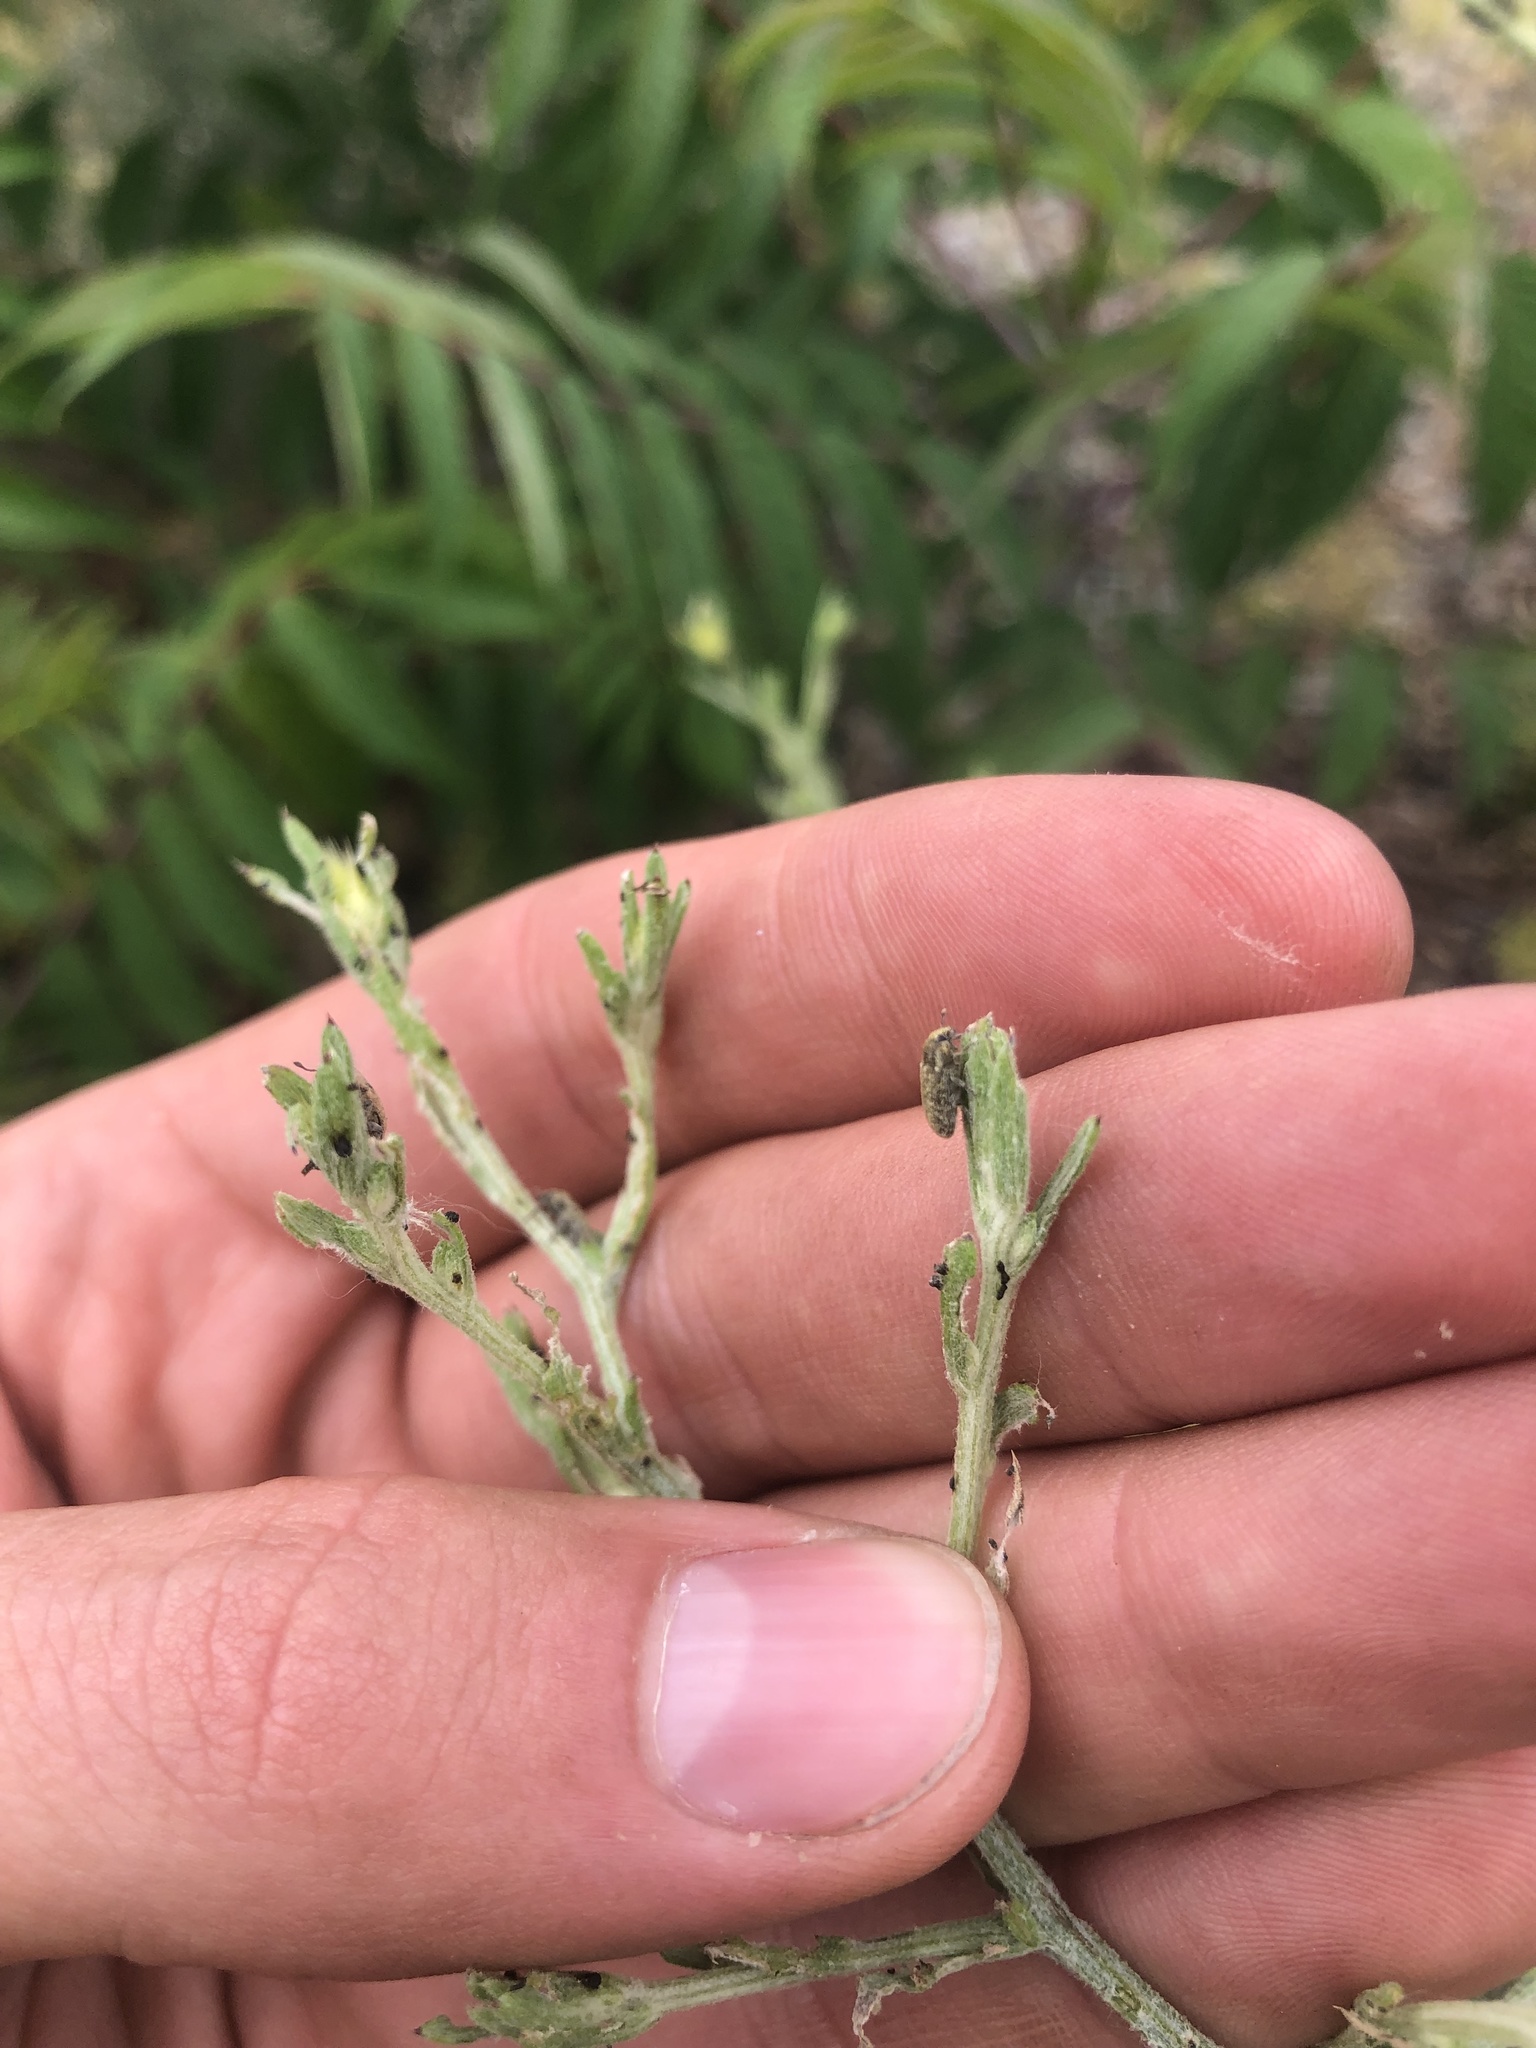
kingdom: Animalia
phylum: Arthropoda
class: Insecta
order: Coleoptera
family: Curculionidae
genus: Bangasternus
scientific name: Bangasternus fausti
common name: Broad-nosed knapweed seedhead weevil
